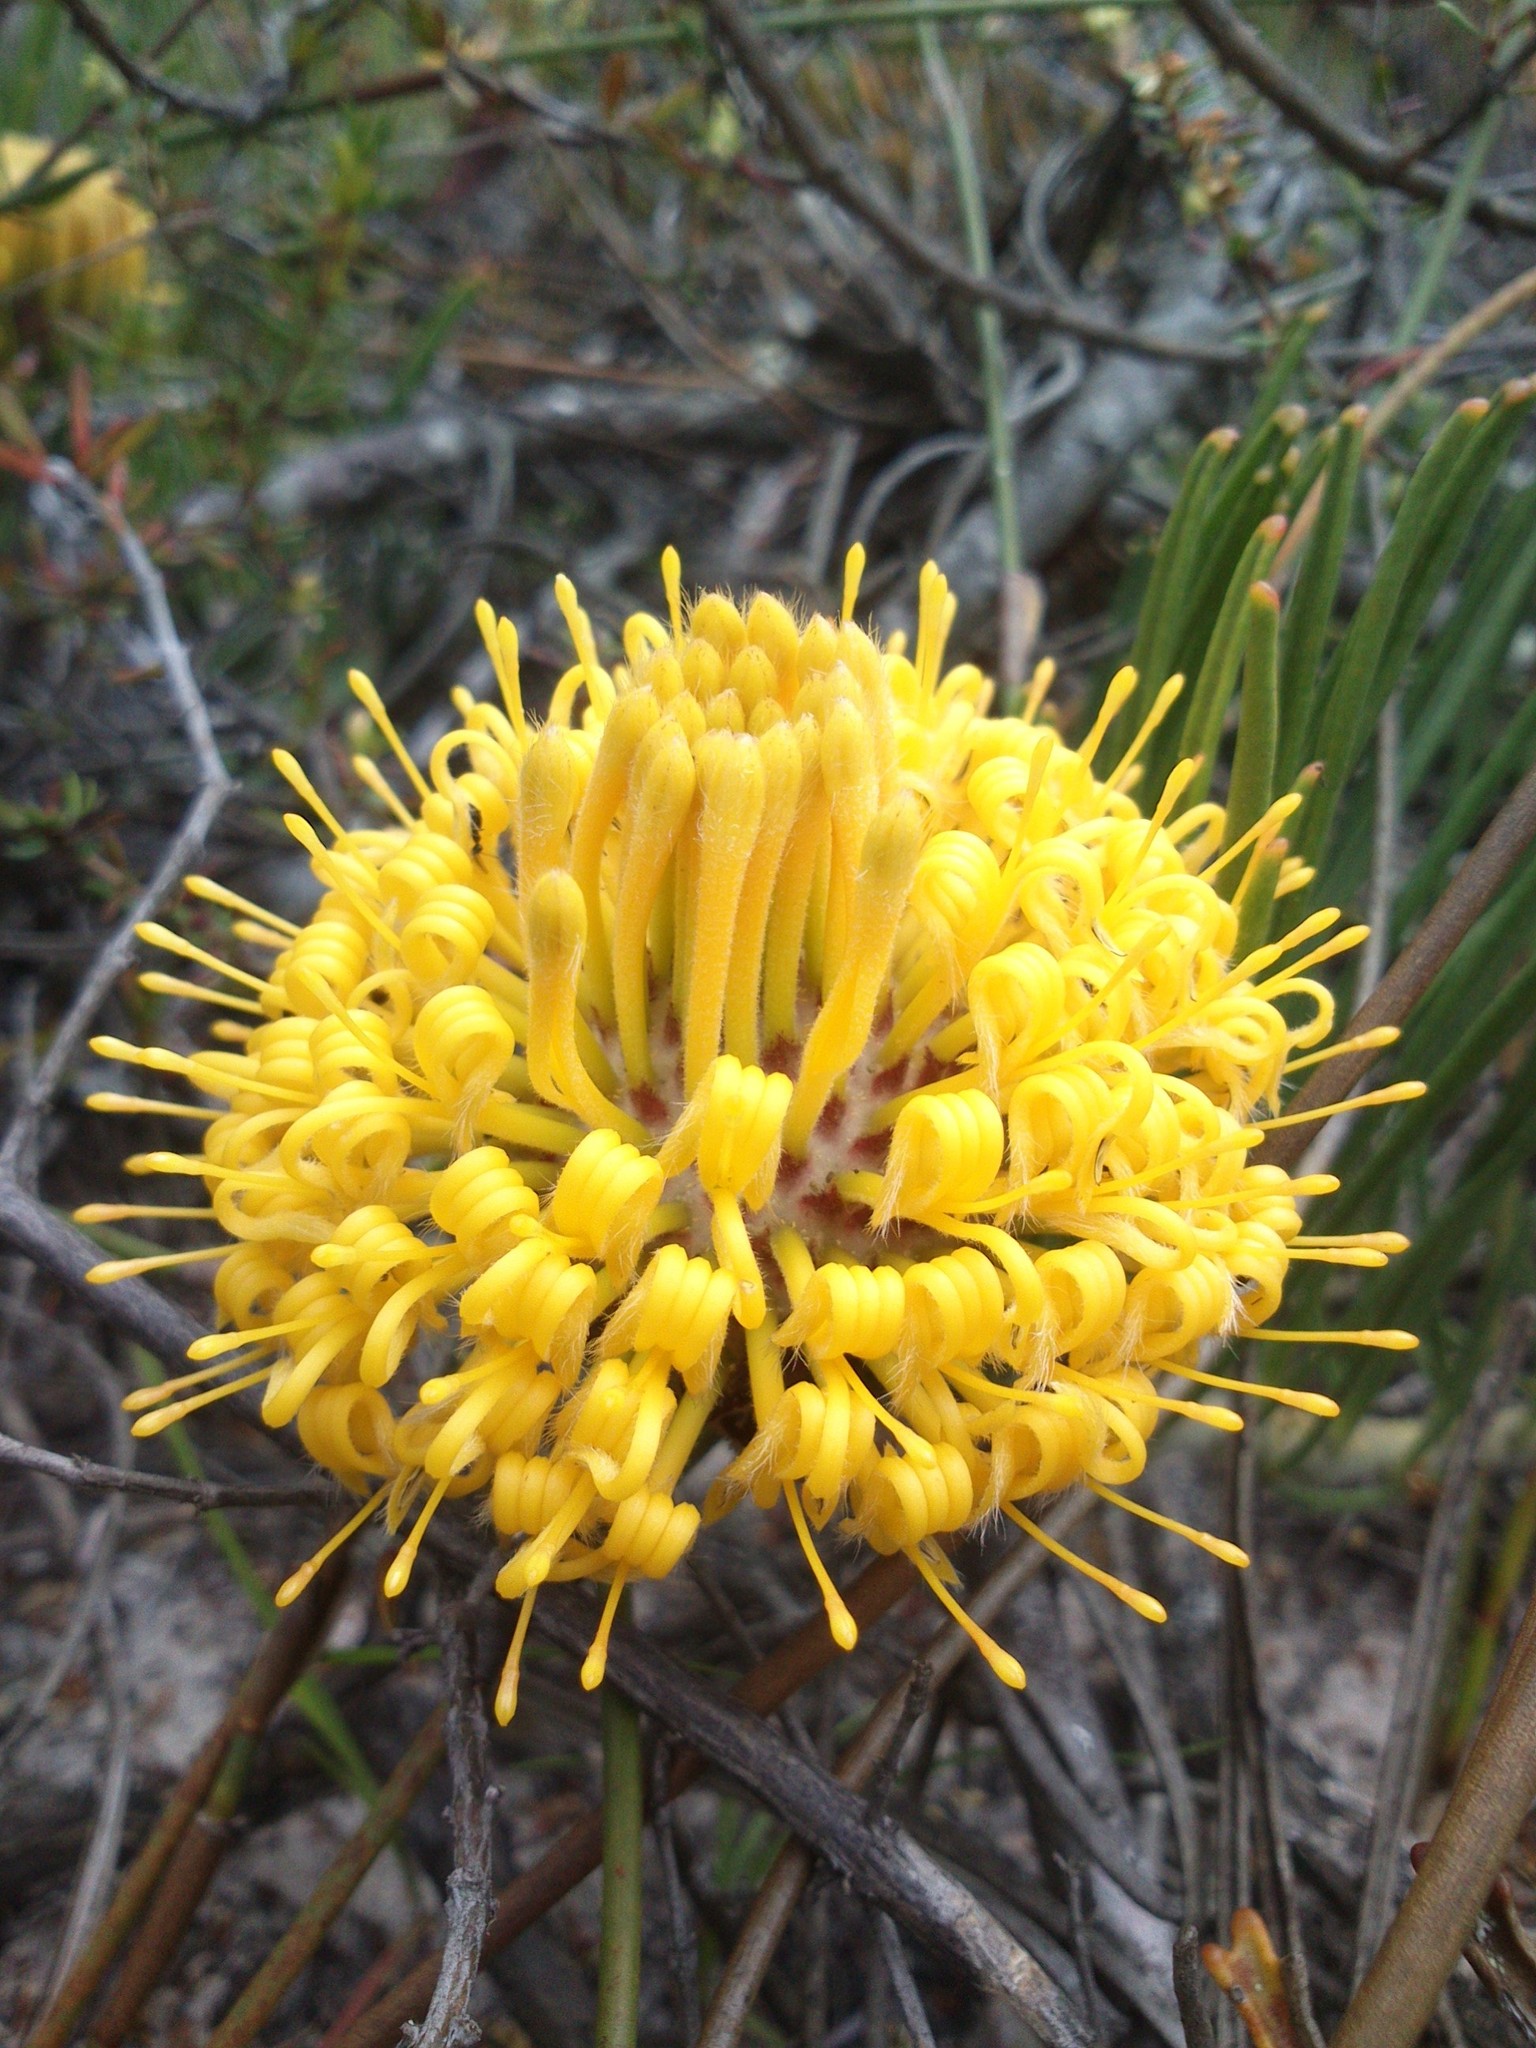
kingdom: Plantae
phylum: Tracheophyta
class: Magnoliopsida
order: Proteales
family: Proteaceae
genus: Leucospermum
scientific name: Leucospermum hypophyllocarpodendron
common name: Snakestem pincushion
